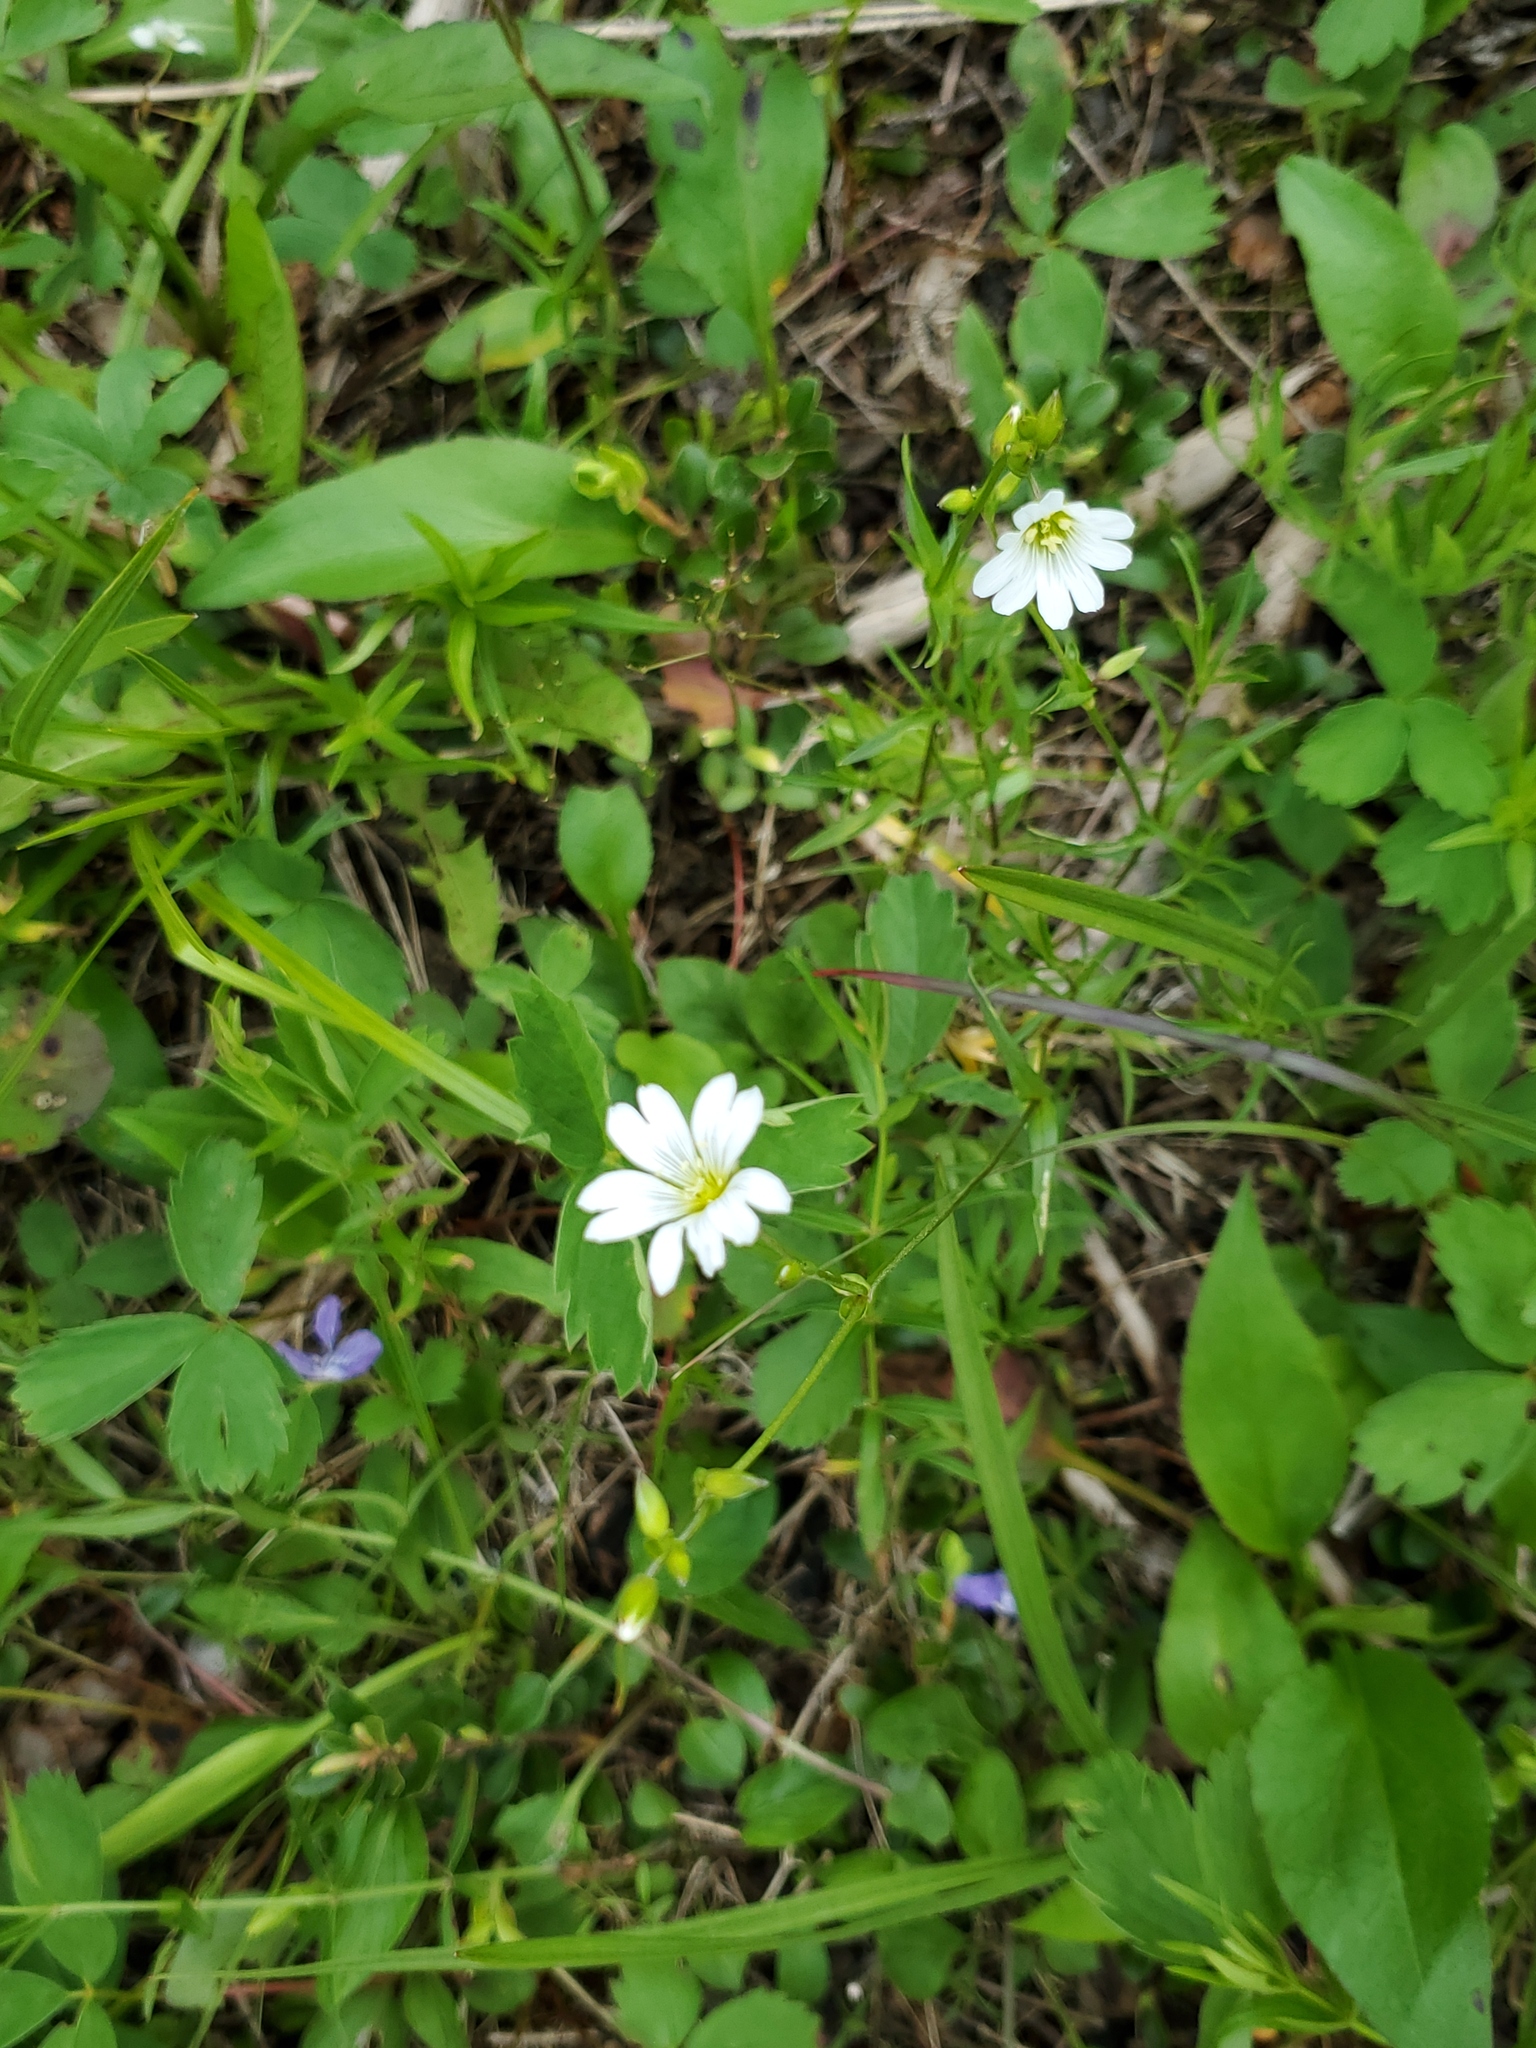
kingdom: Plantae
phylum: Tracheophyta
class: Magnoliopsida
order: Caryophyllales
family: Caryophyllaceae
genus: Cerastium
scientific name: Cerastium arvense
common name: Field mouse-ear
